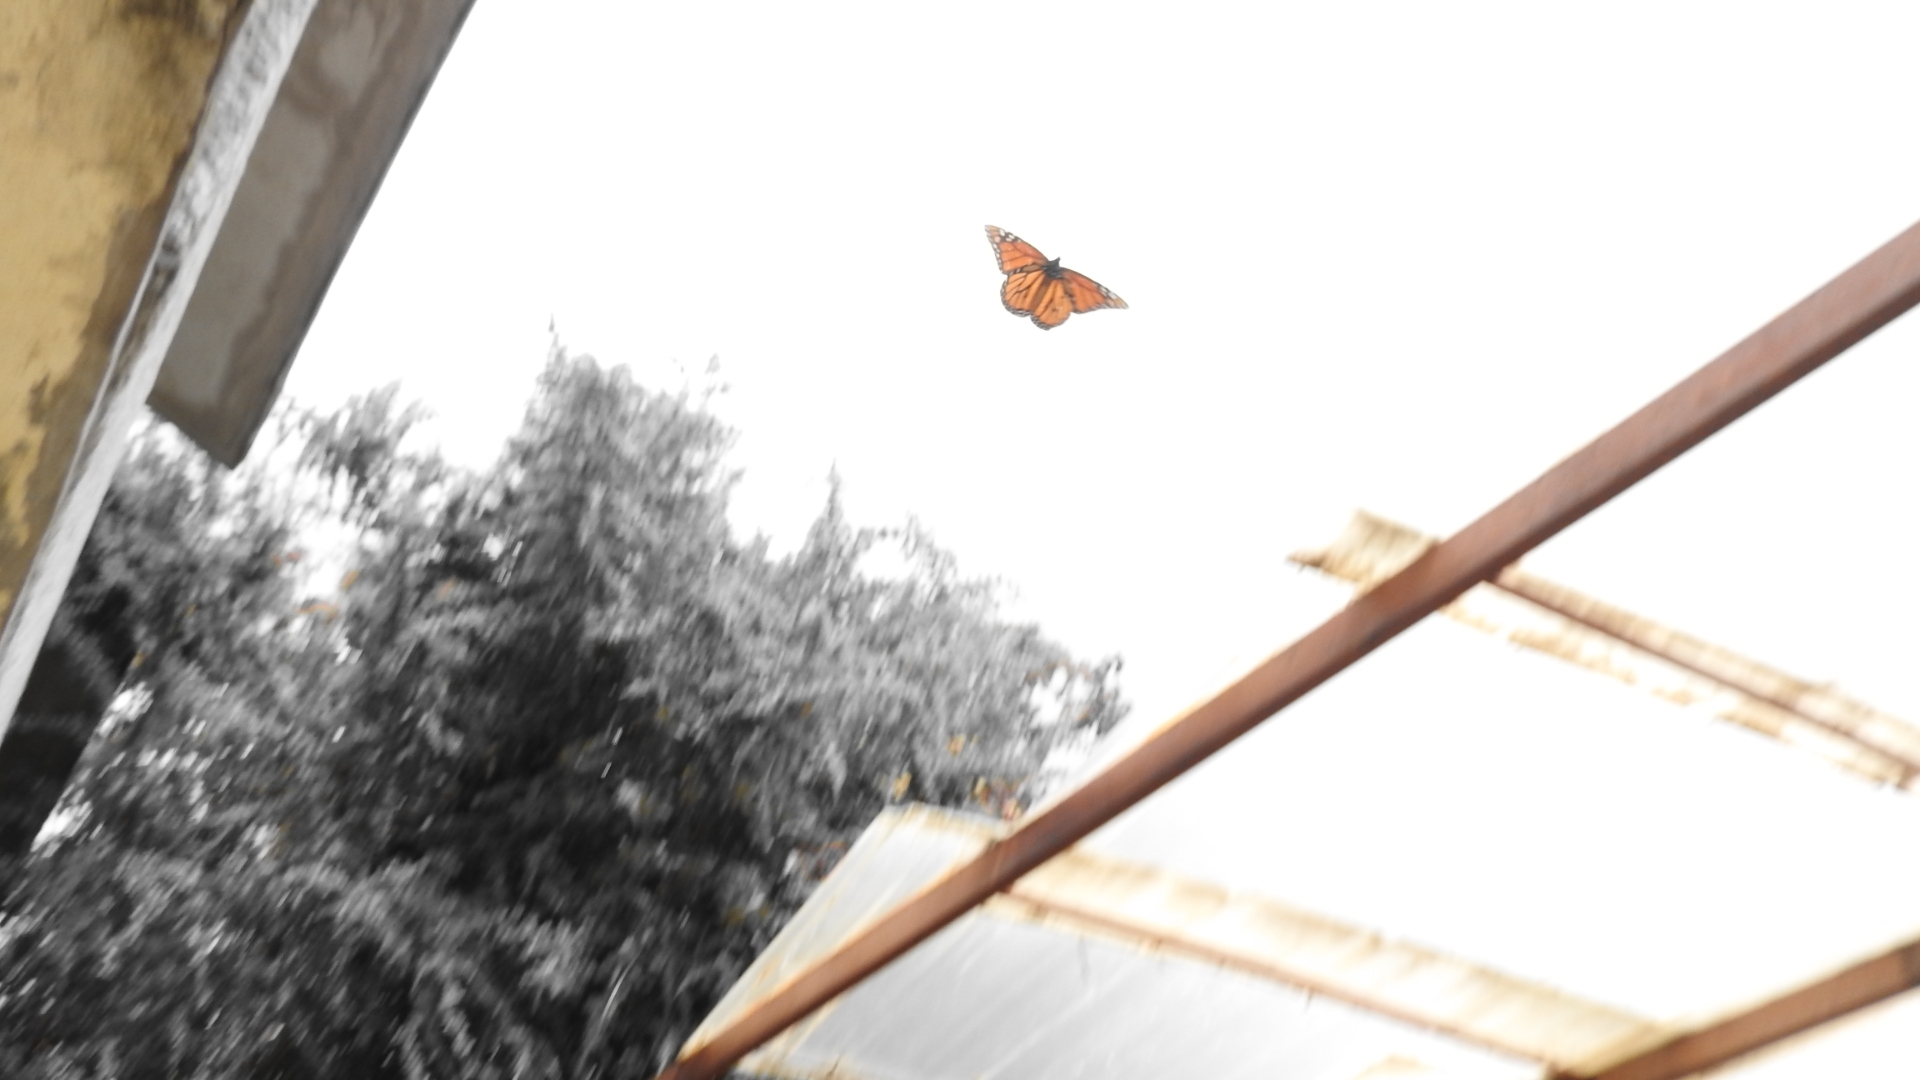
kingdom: Animalia
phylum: Arthropoda
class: Insecta
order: Lepidoptera
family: Nymphalidae
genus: Danaus
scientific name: Danaus plexippus
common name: Monarch
